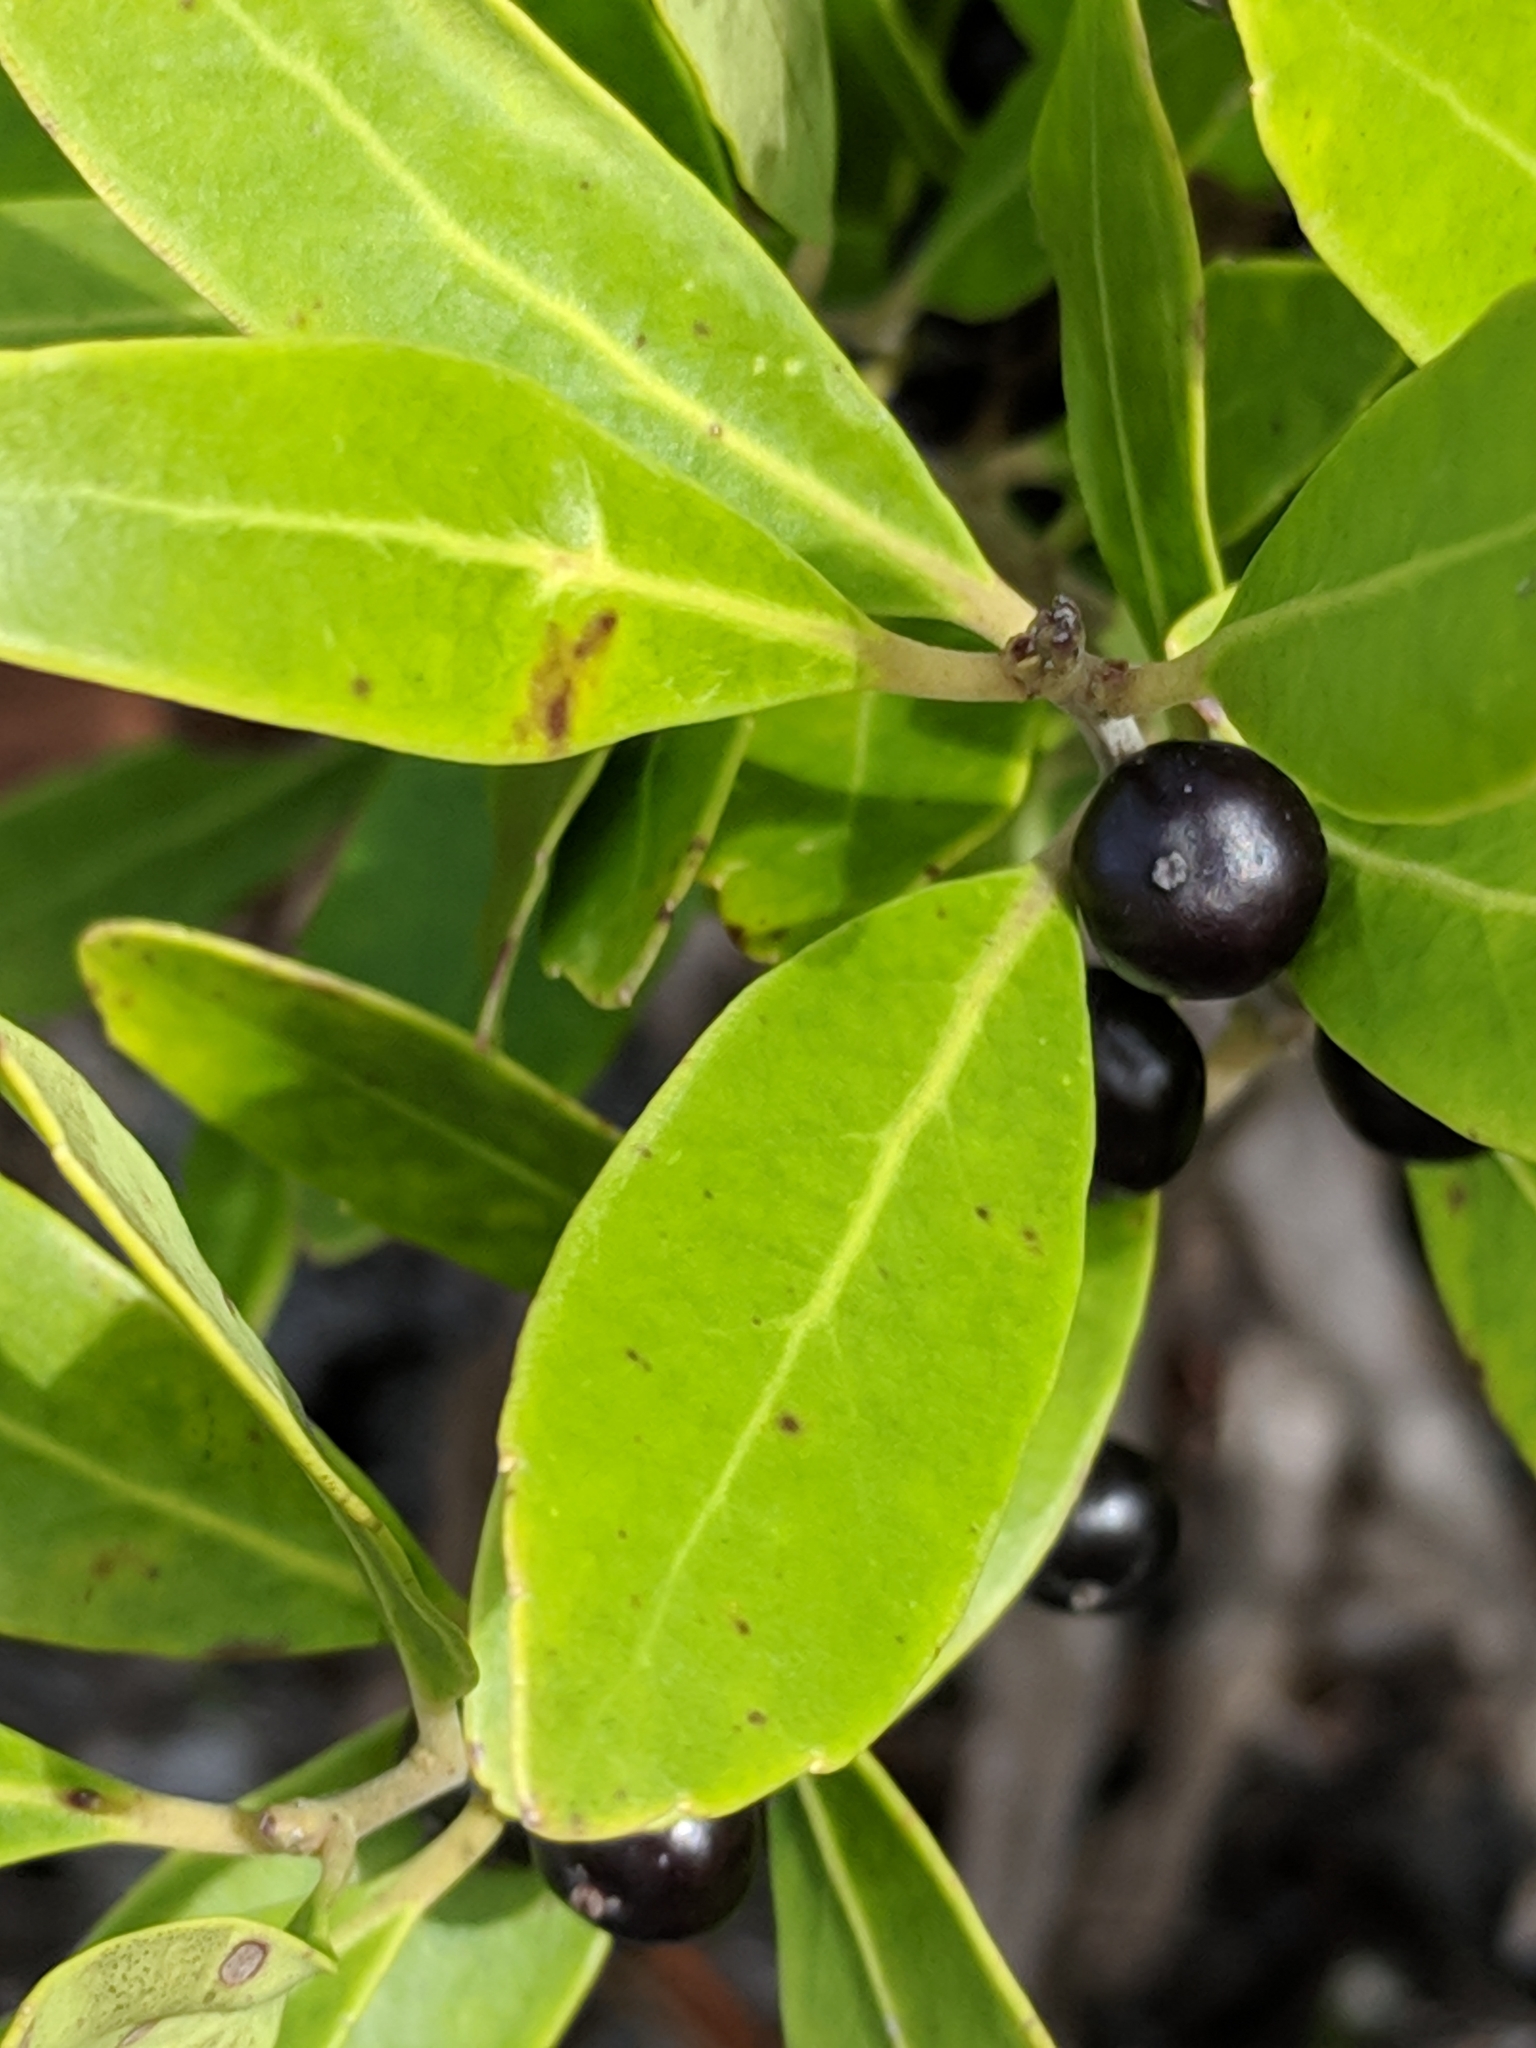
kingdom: Plantae
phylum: Tracheophyta
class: Magnoliopsida
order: Aquifoliales
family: Aquifoliaceae
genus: Ilex
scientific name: Ilex glabra
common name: Bitter gallberry
